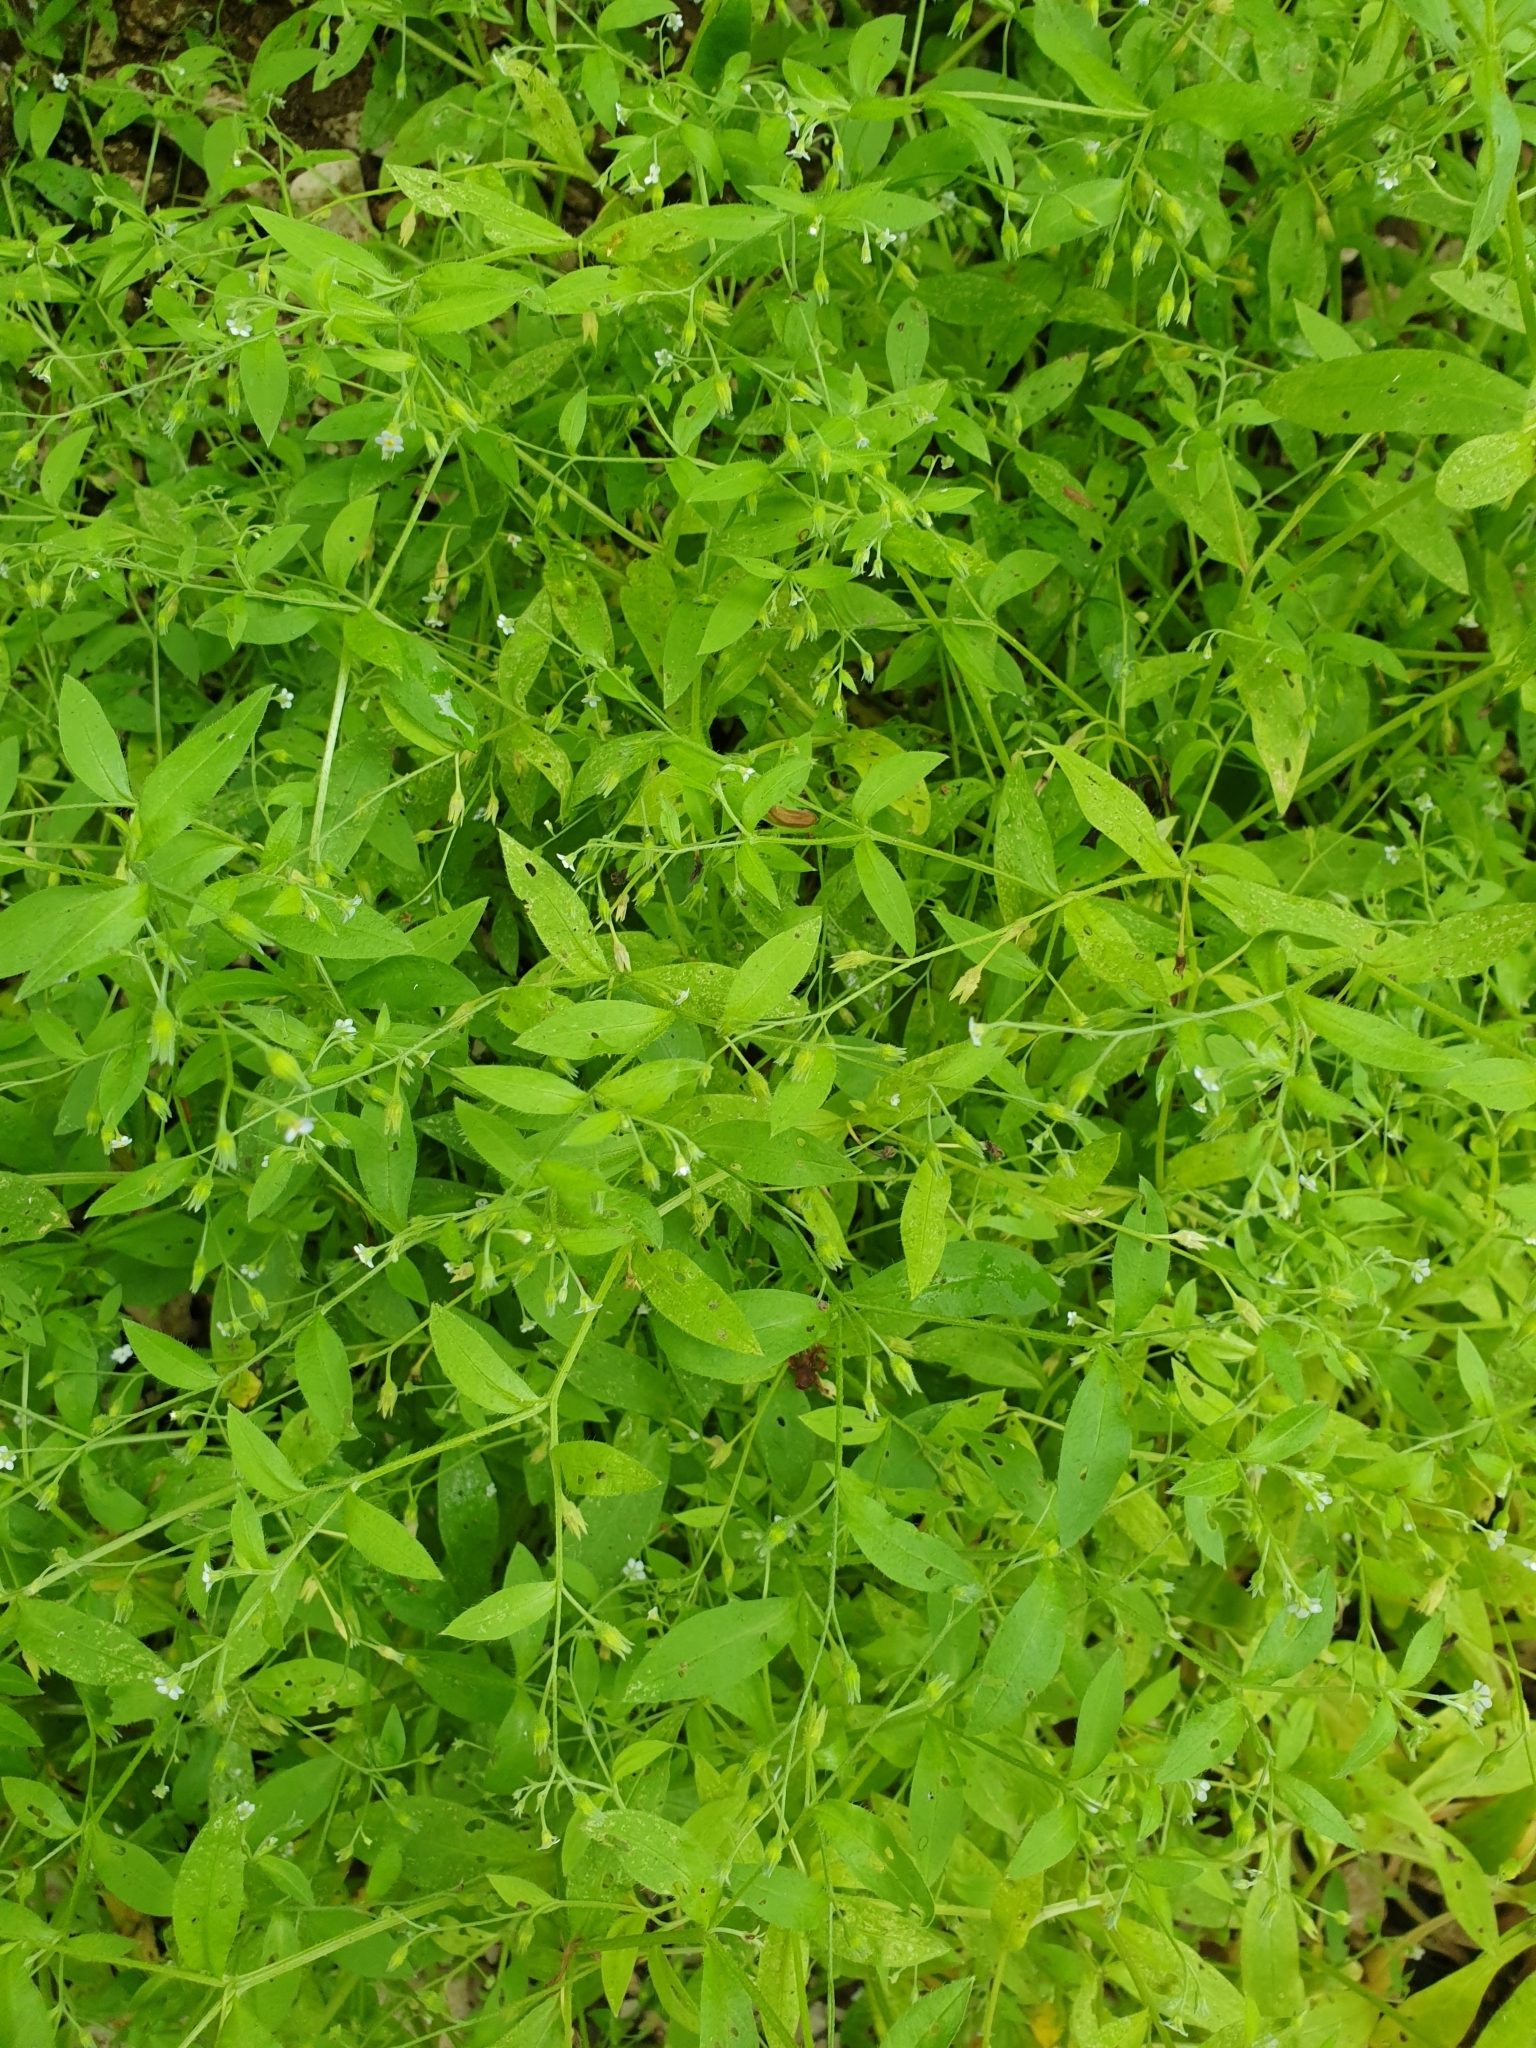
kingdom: Plantae
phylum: Tracheophyta
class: Magnoliopsida
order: Boraginales
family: Boraginaceae
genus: Myosotis
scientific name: Myosotis sparsiflora
